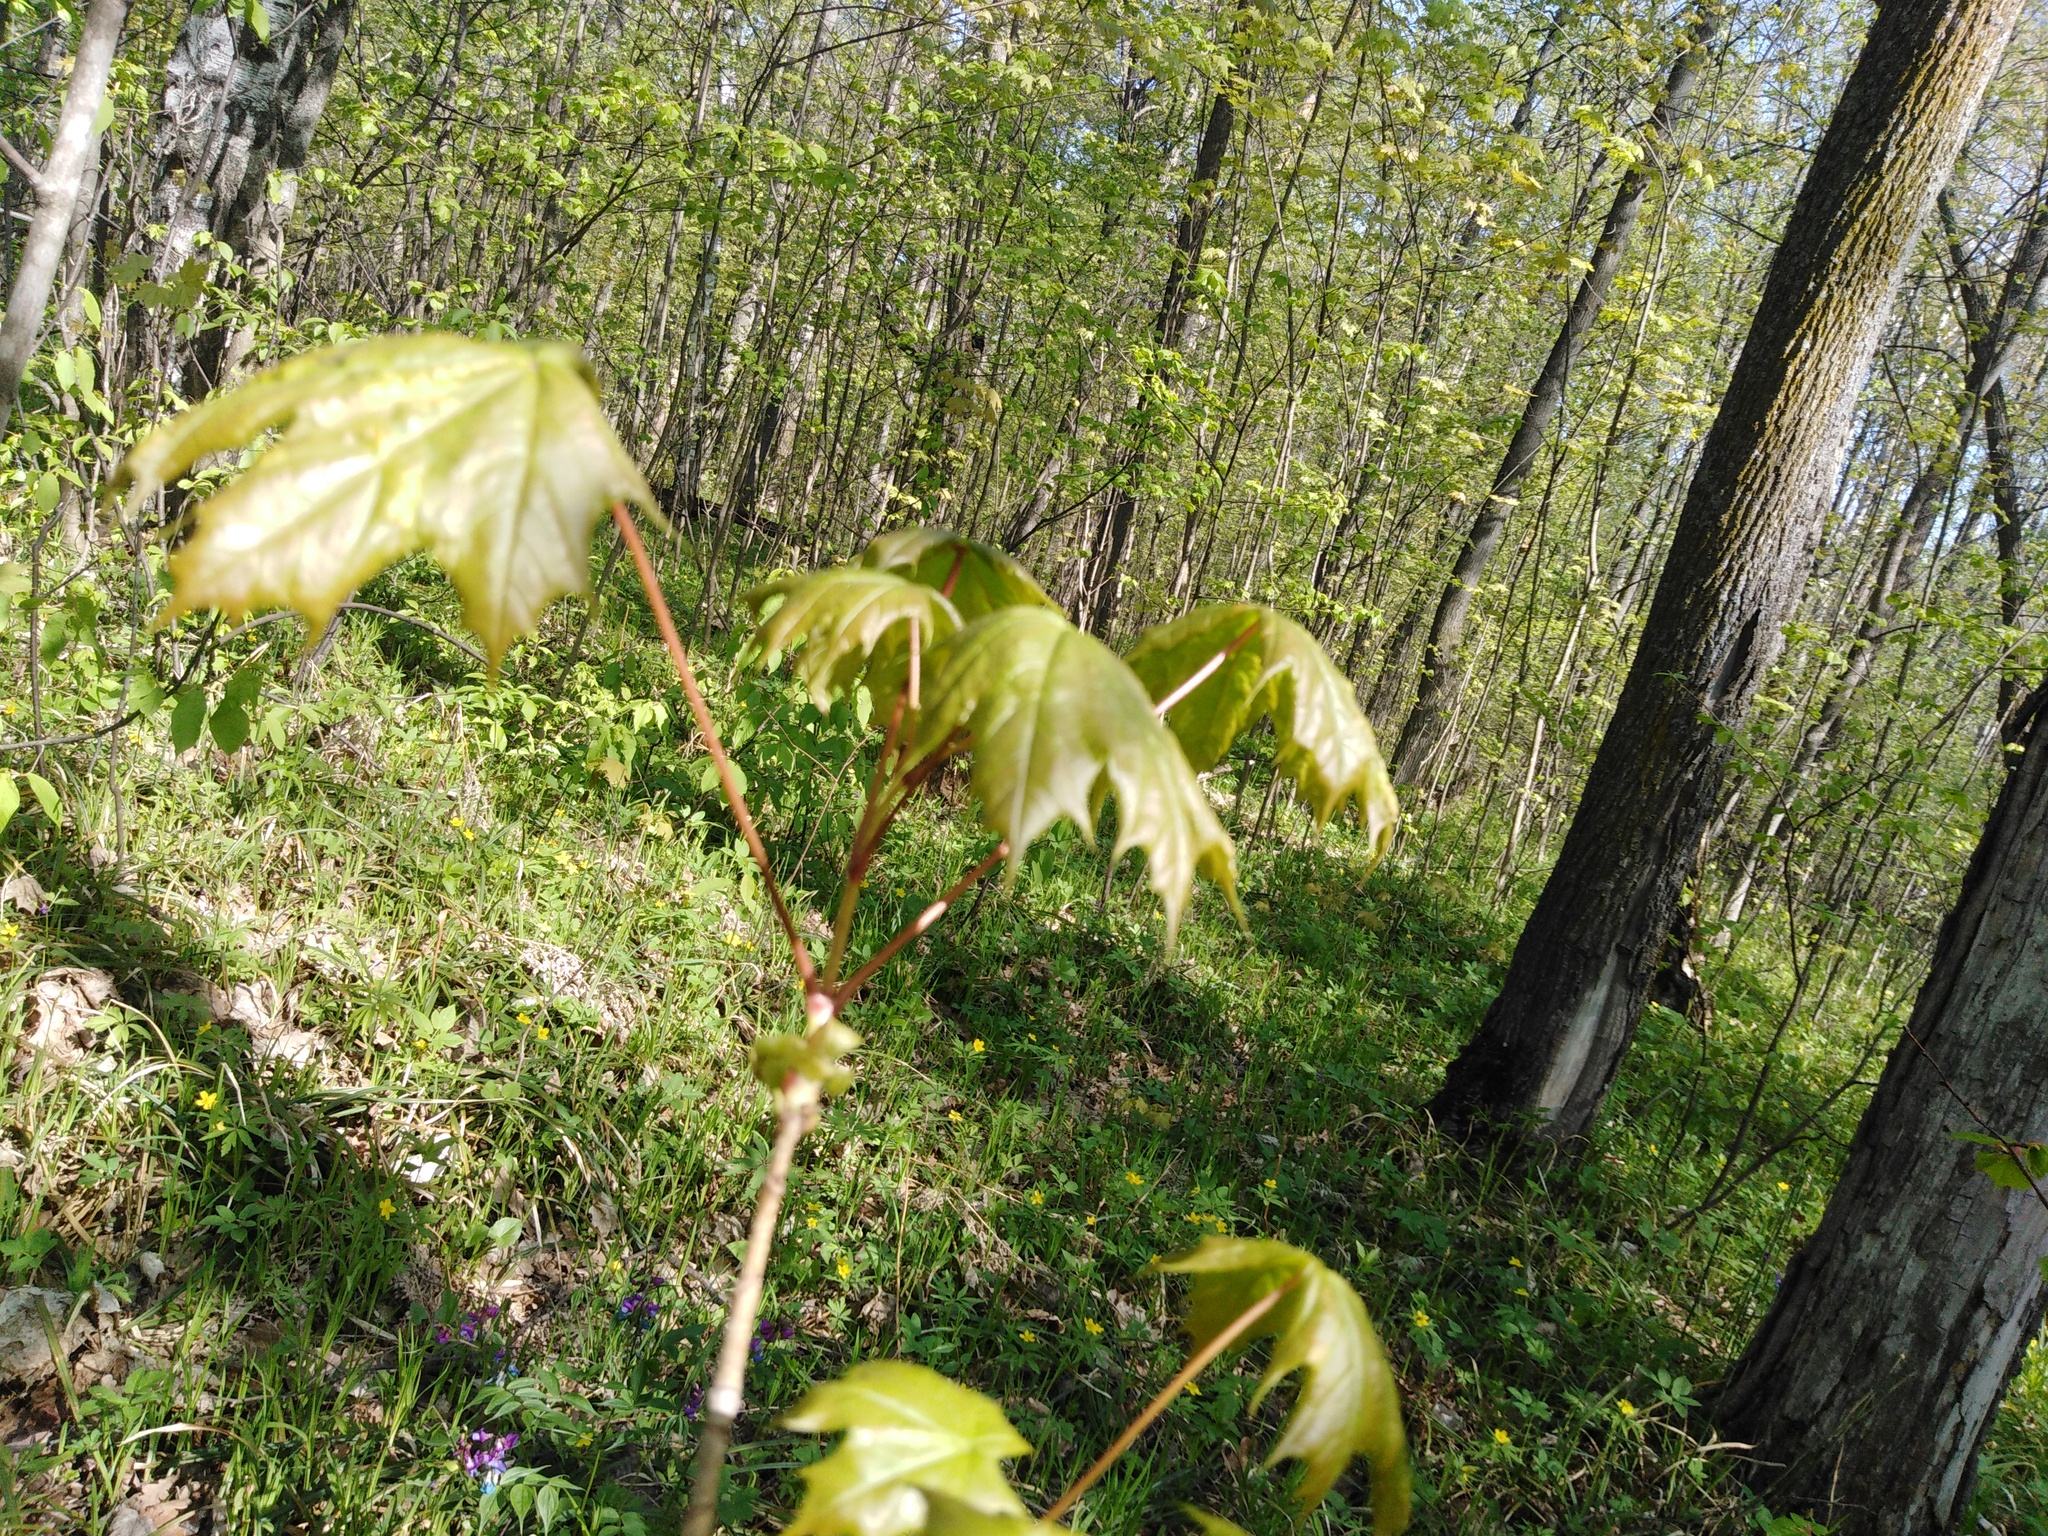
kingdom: Plantae
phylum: Tracheophyta
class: Magnoliopsida
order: Sapindales
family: Sapindaceae
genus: Acer
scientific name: Acer platanoides
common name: Norway maple
